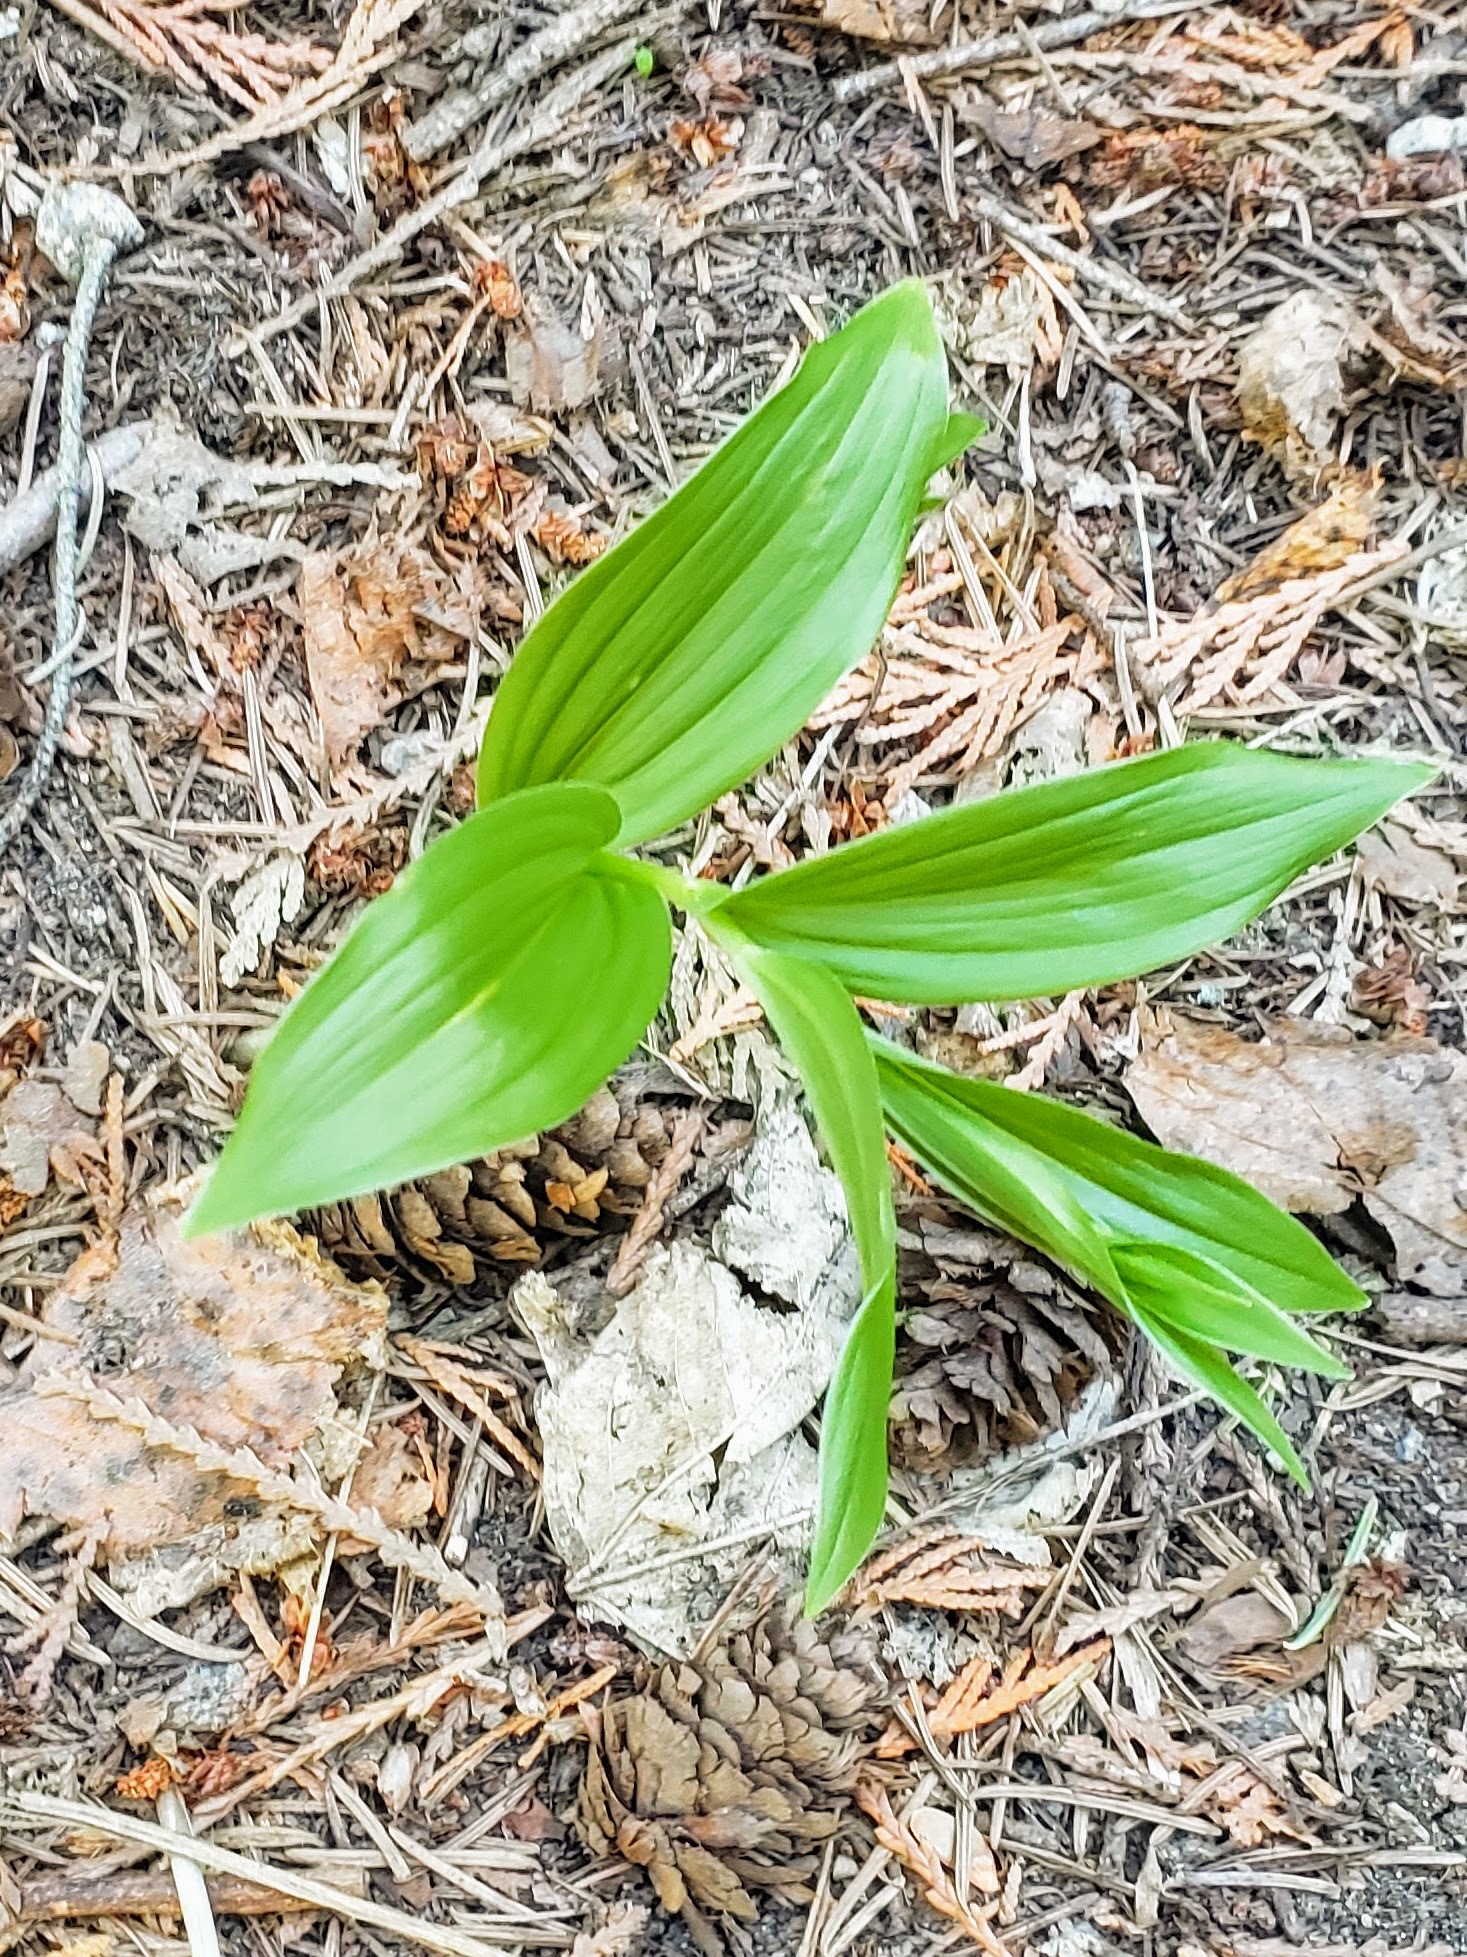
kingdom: Plantae
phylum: Tracheophyta
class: Liliopsida
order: Asparagales
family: Asparagaceae
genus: Maianthemum
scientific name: Maianthemum racemosum
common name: False spikenard
